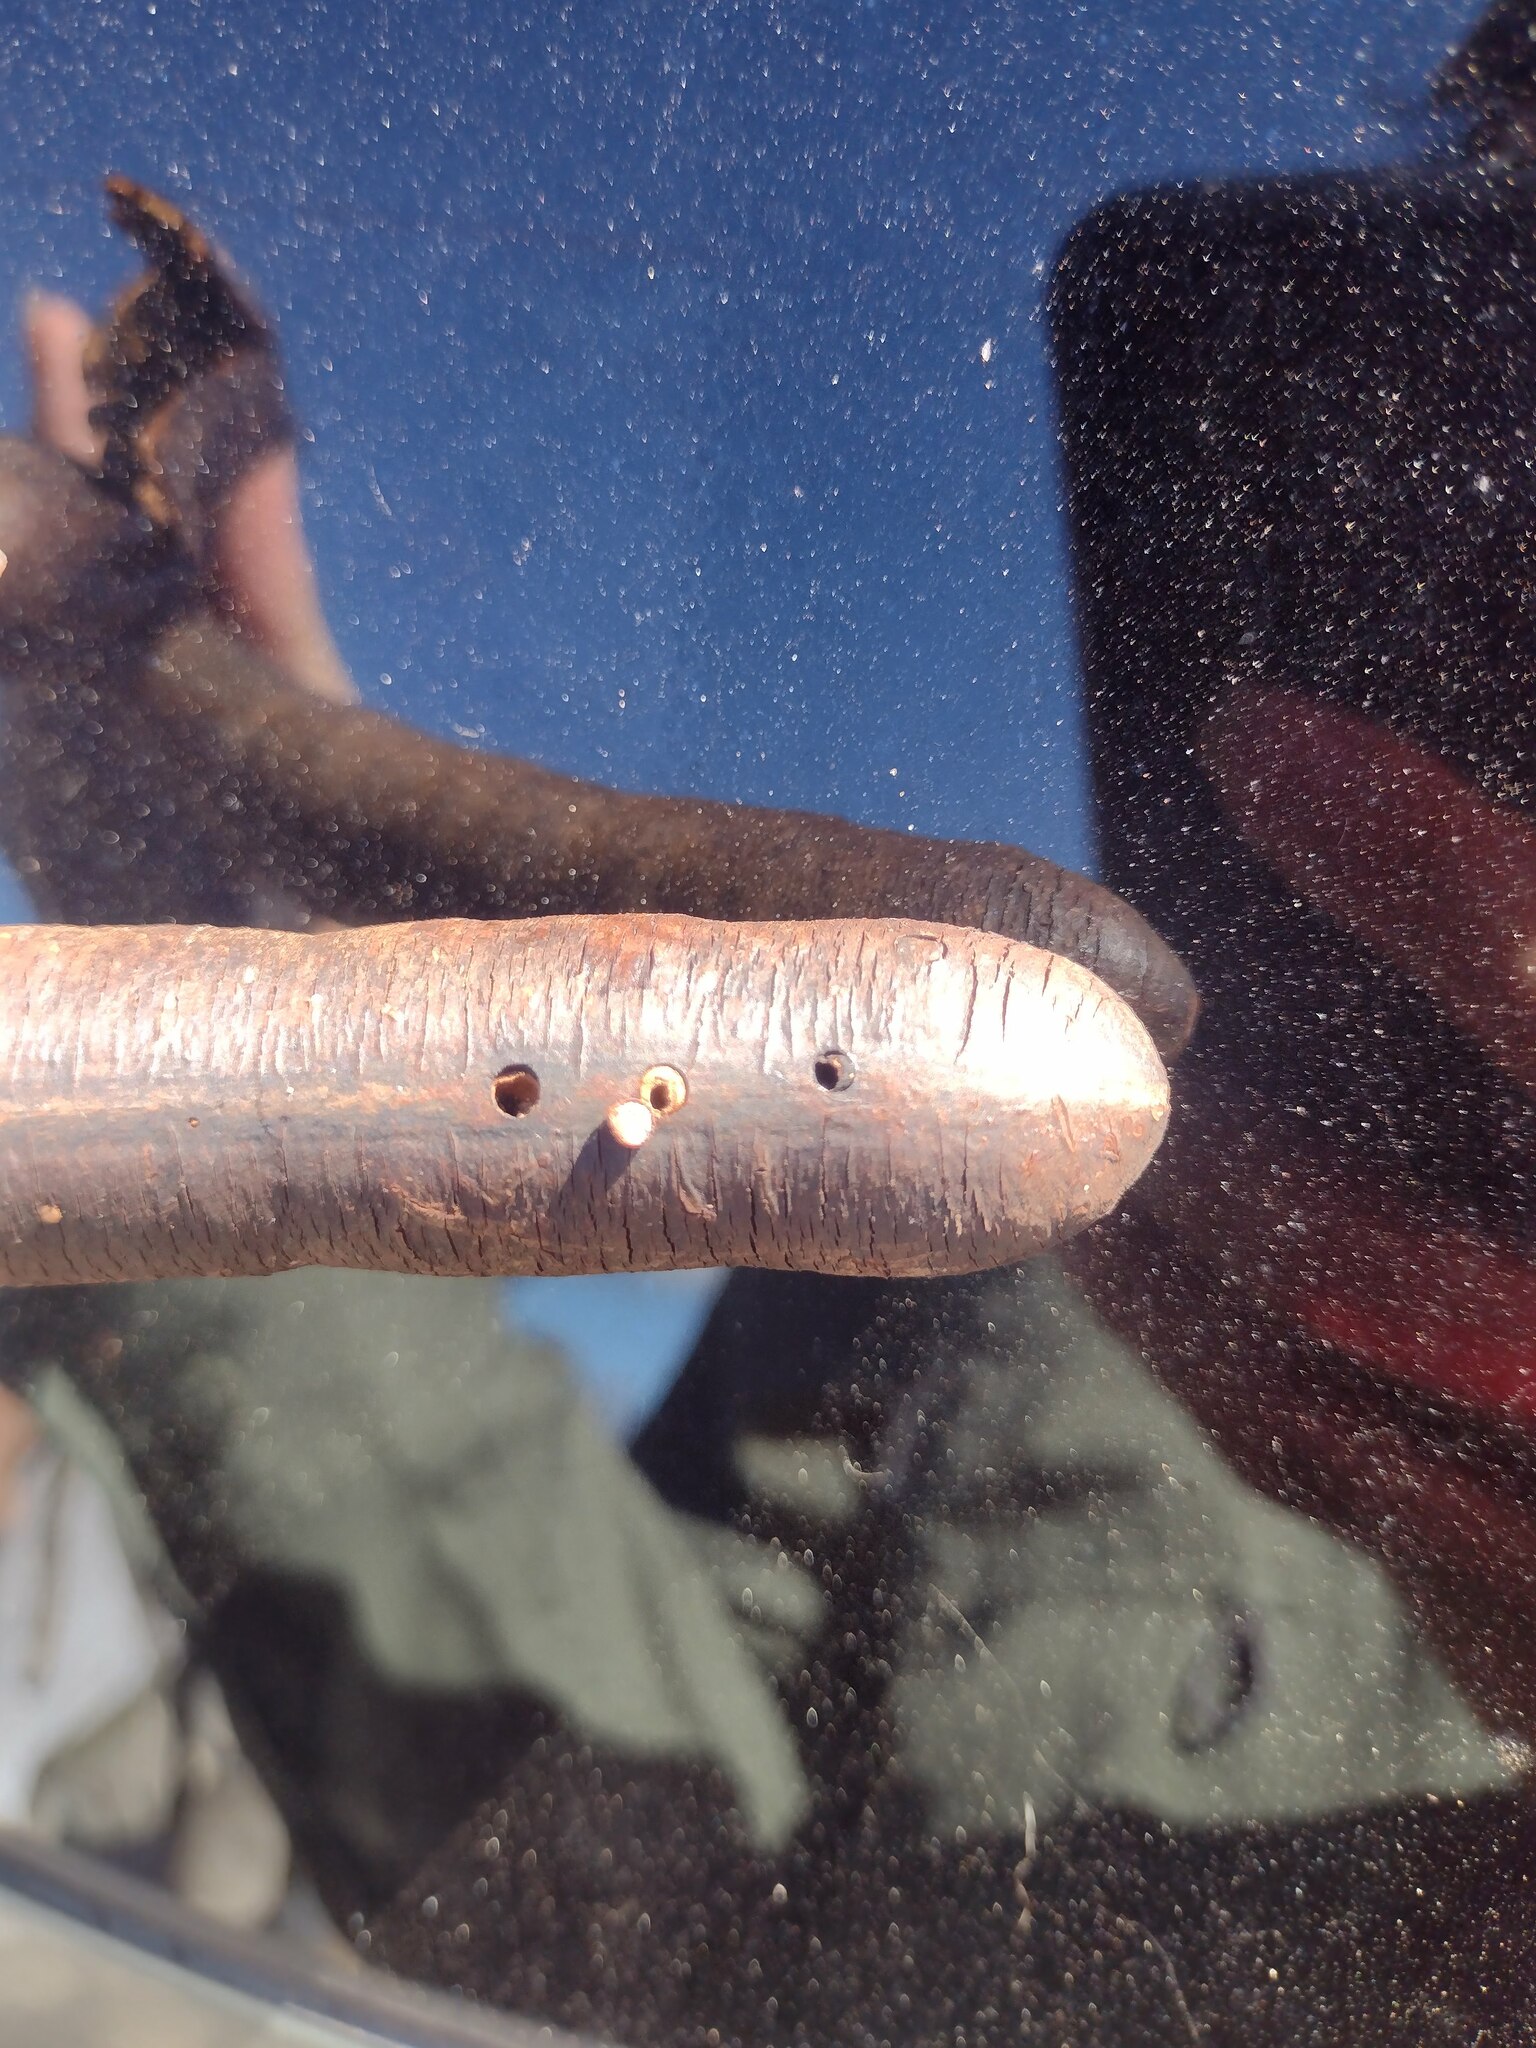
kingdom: Animalia
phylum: Arthropoda
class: Insecta
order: Lepidoptera
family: Pyralidae
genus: Trachylepidia
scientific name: Trachylepidia fructicassiella
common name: Cassia seed borer
